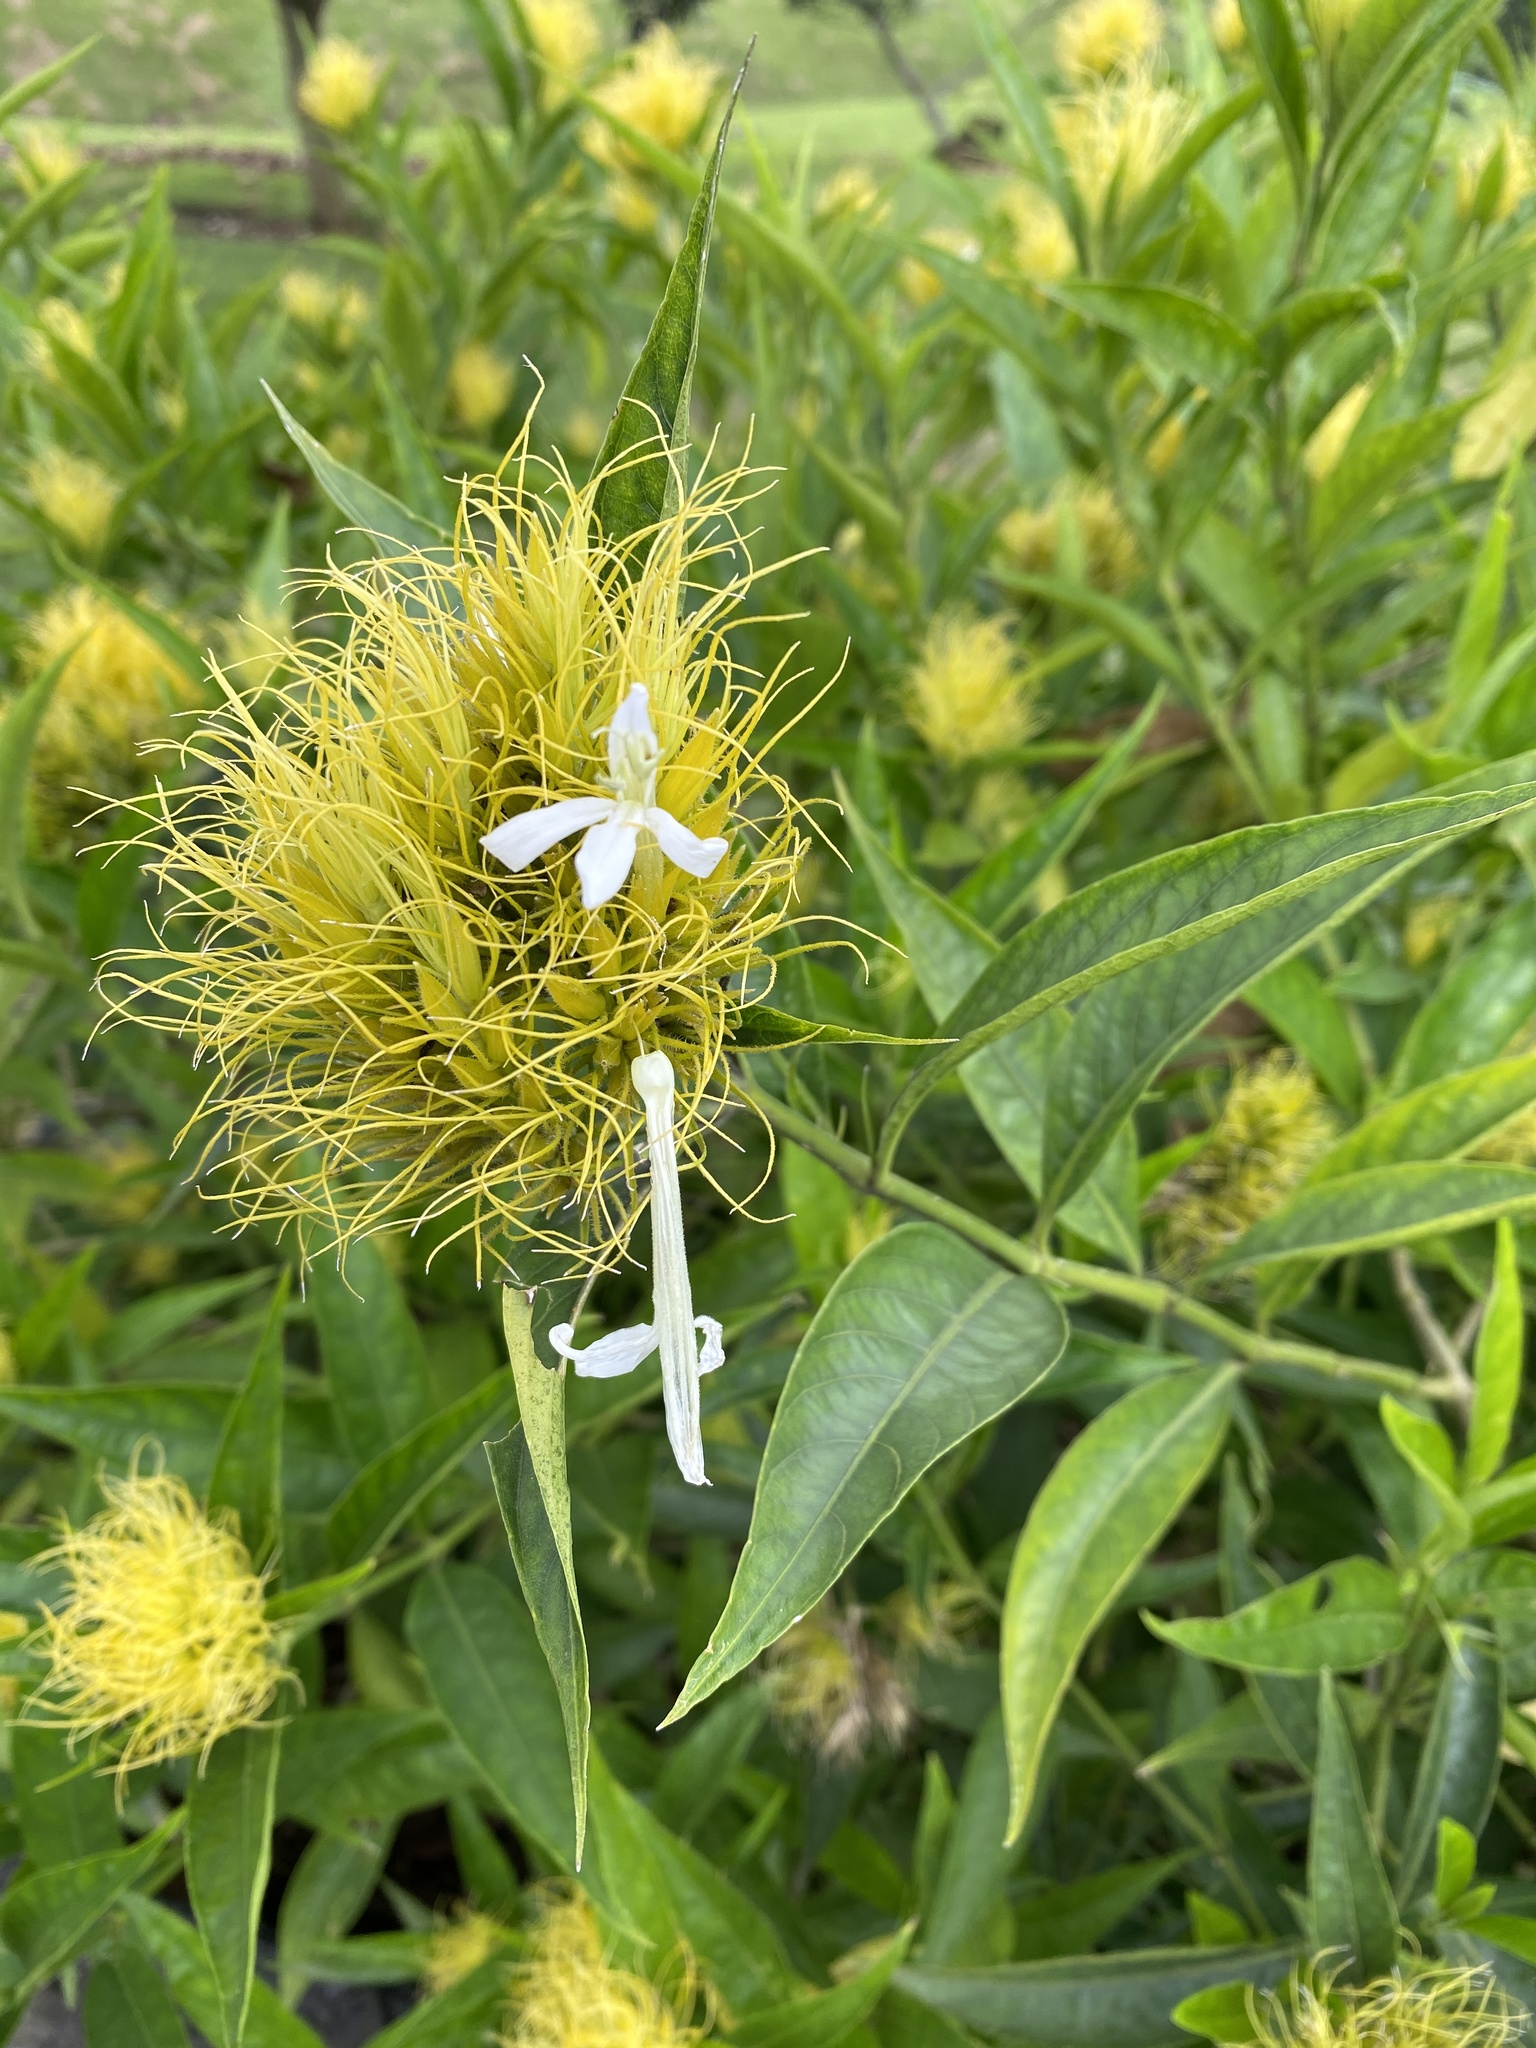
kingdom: Plantae
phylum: Tracheophyta
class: Magnoliopsida
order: Lamiales
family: Acanthaceae
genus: Justicia
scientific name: Justicia croceochlamys
